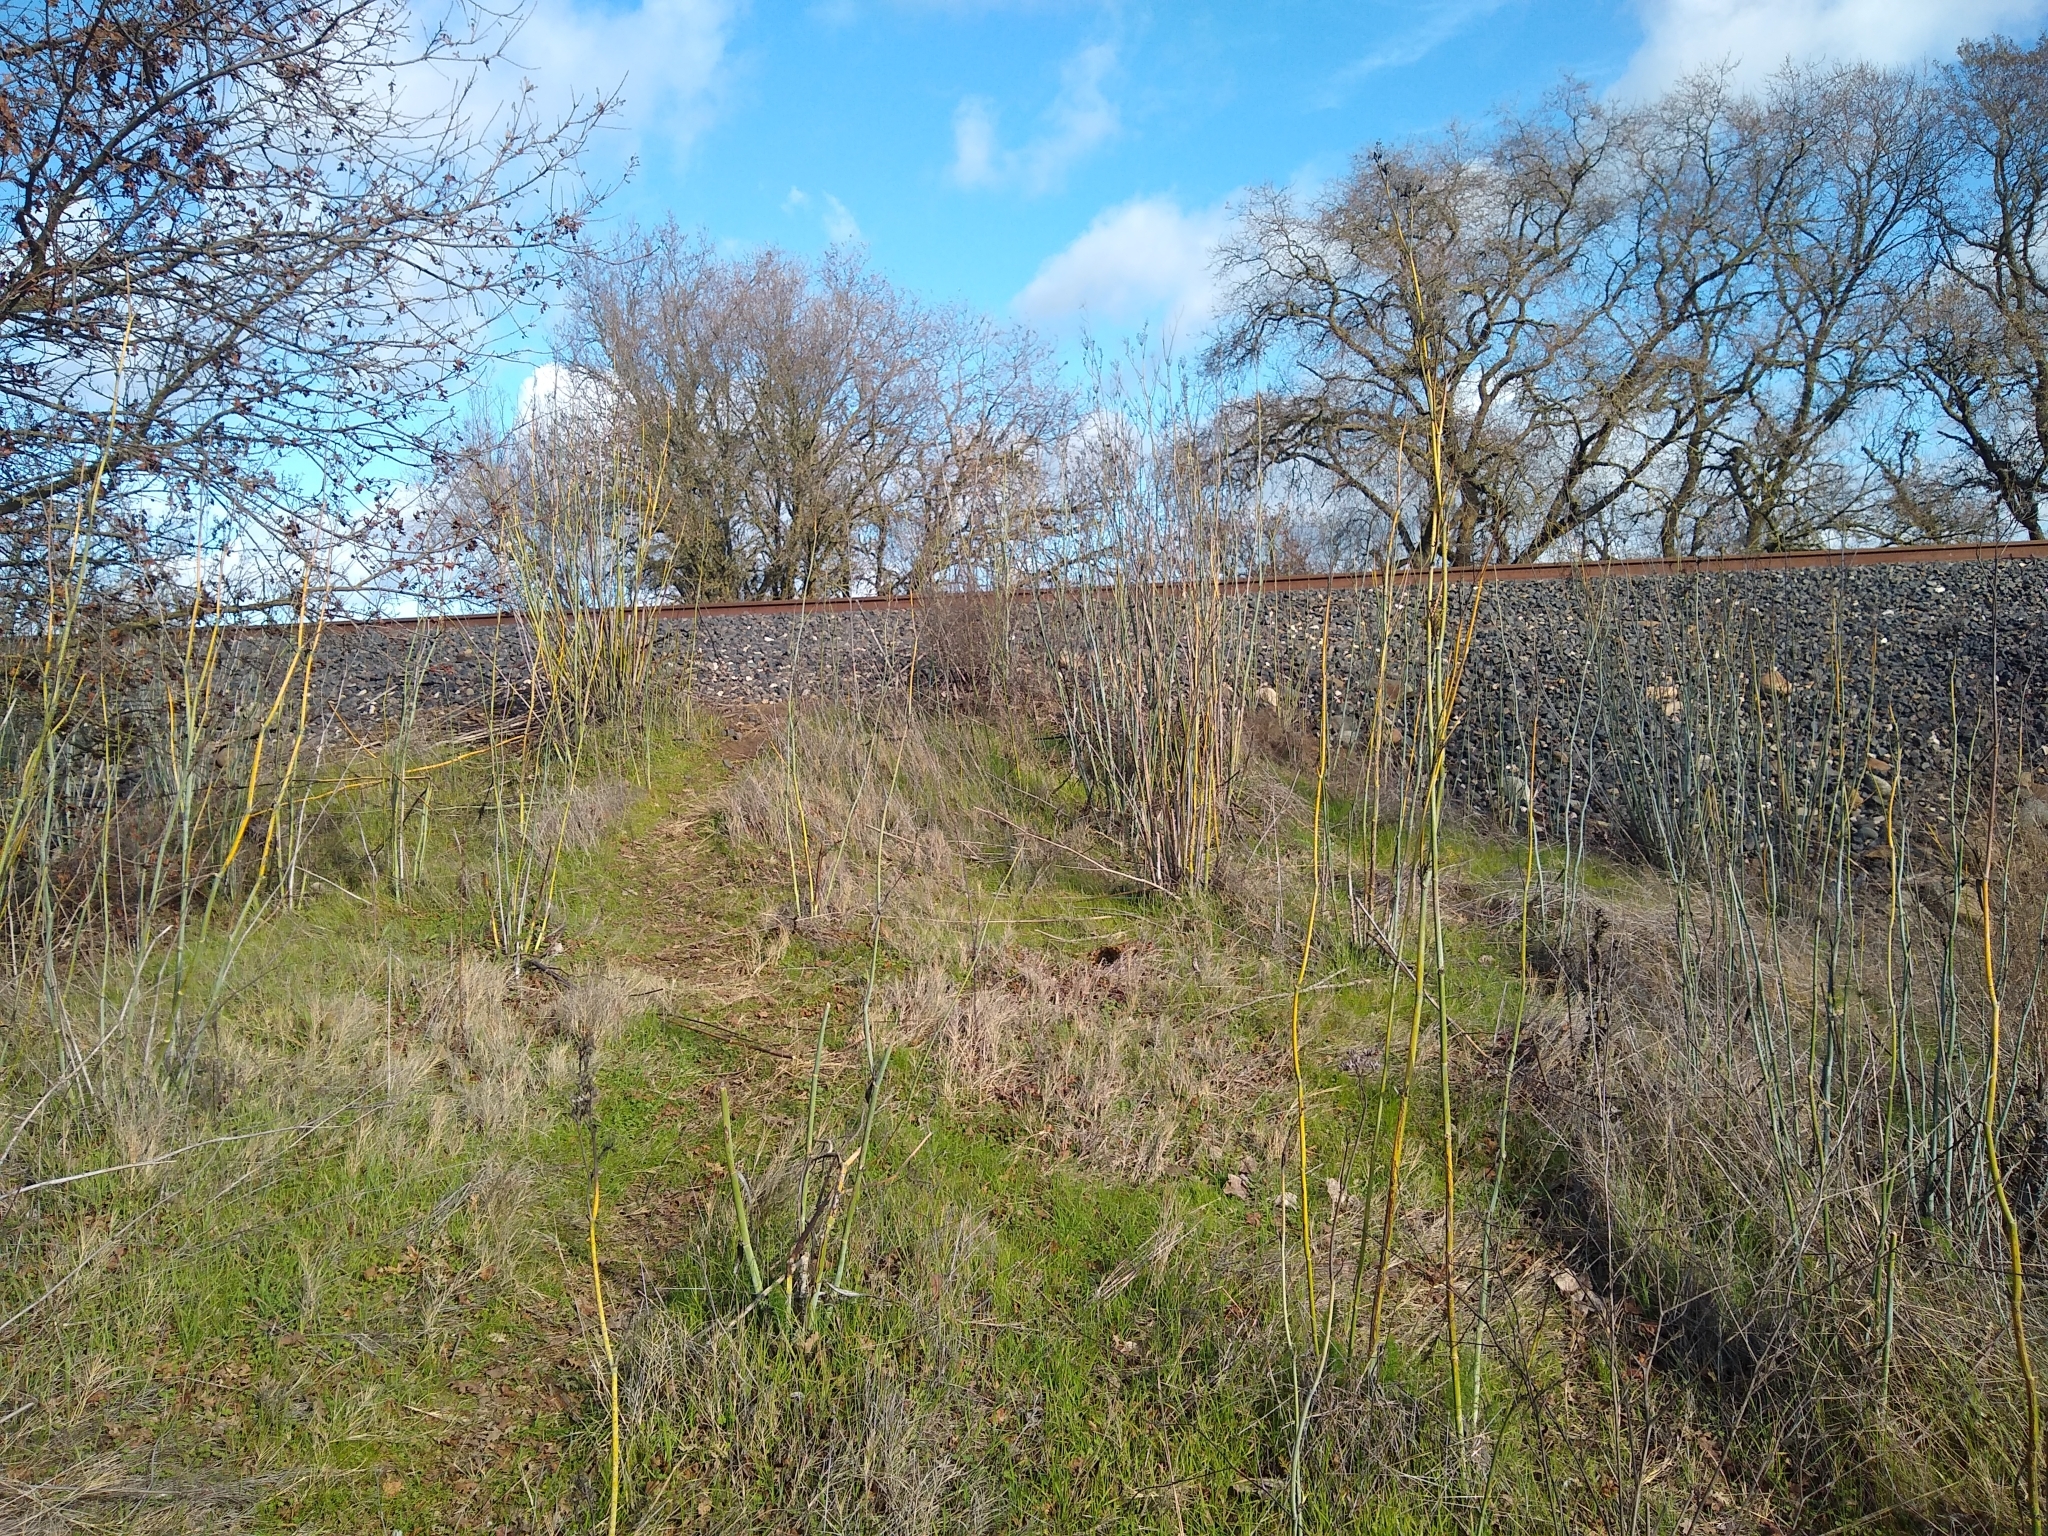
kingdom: Plantae
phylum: Tracheophyta
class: Magnoliopsida
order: Apiales
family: Apiaceae
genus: Foeniculum
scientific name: Foeniculum vulgare
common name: Fennel
